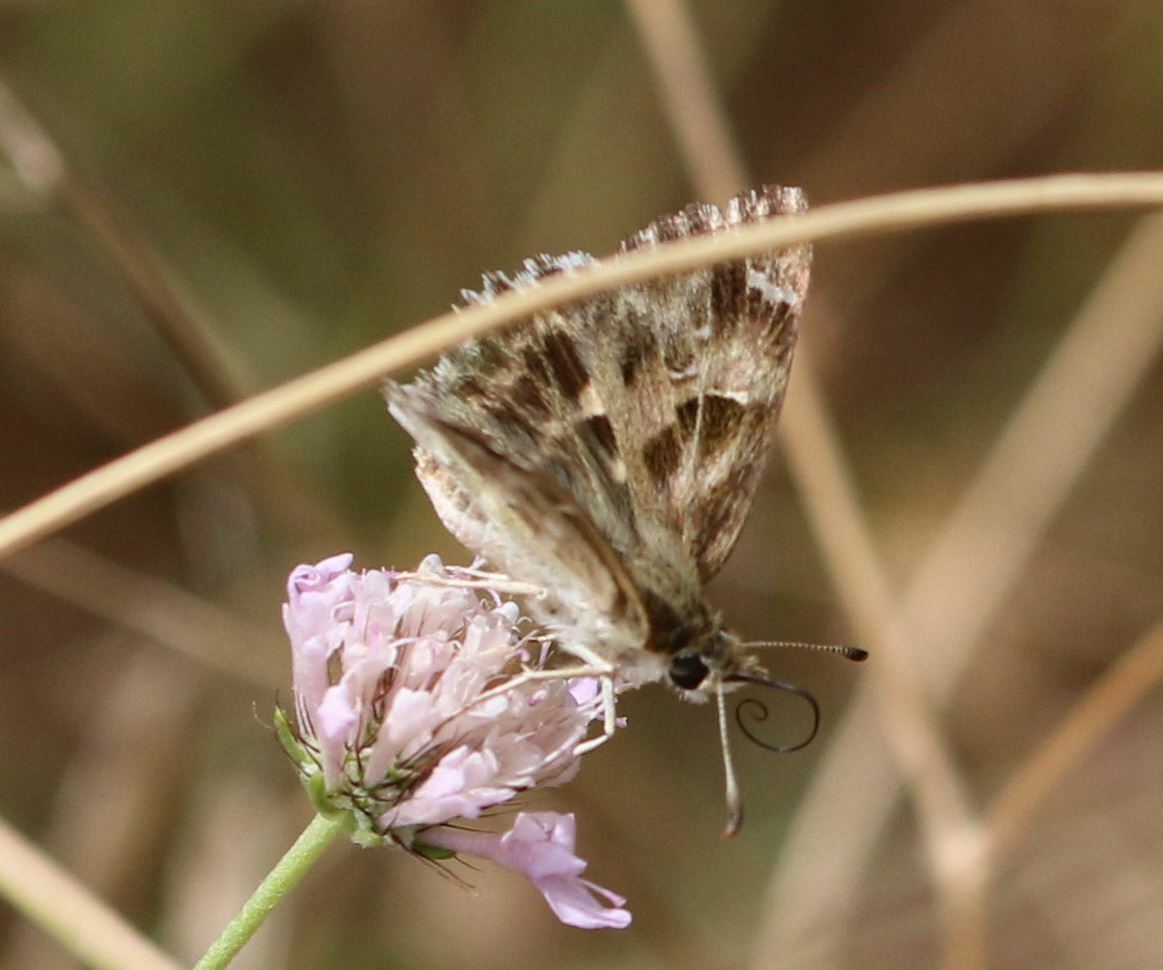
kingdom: Animalia
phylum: Arthropoda
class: Insecta
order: Lepidoptera
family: Hesperiidae
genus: Carcharodus
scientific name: Carcharodus alceae
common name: Mallow skipper
